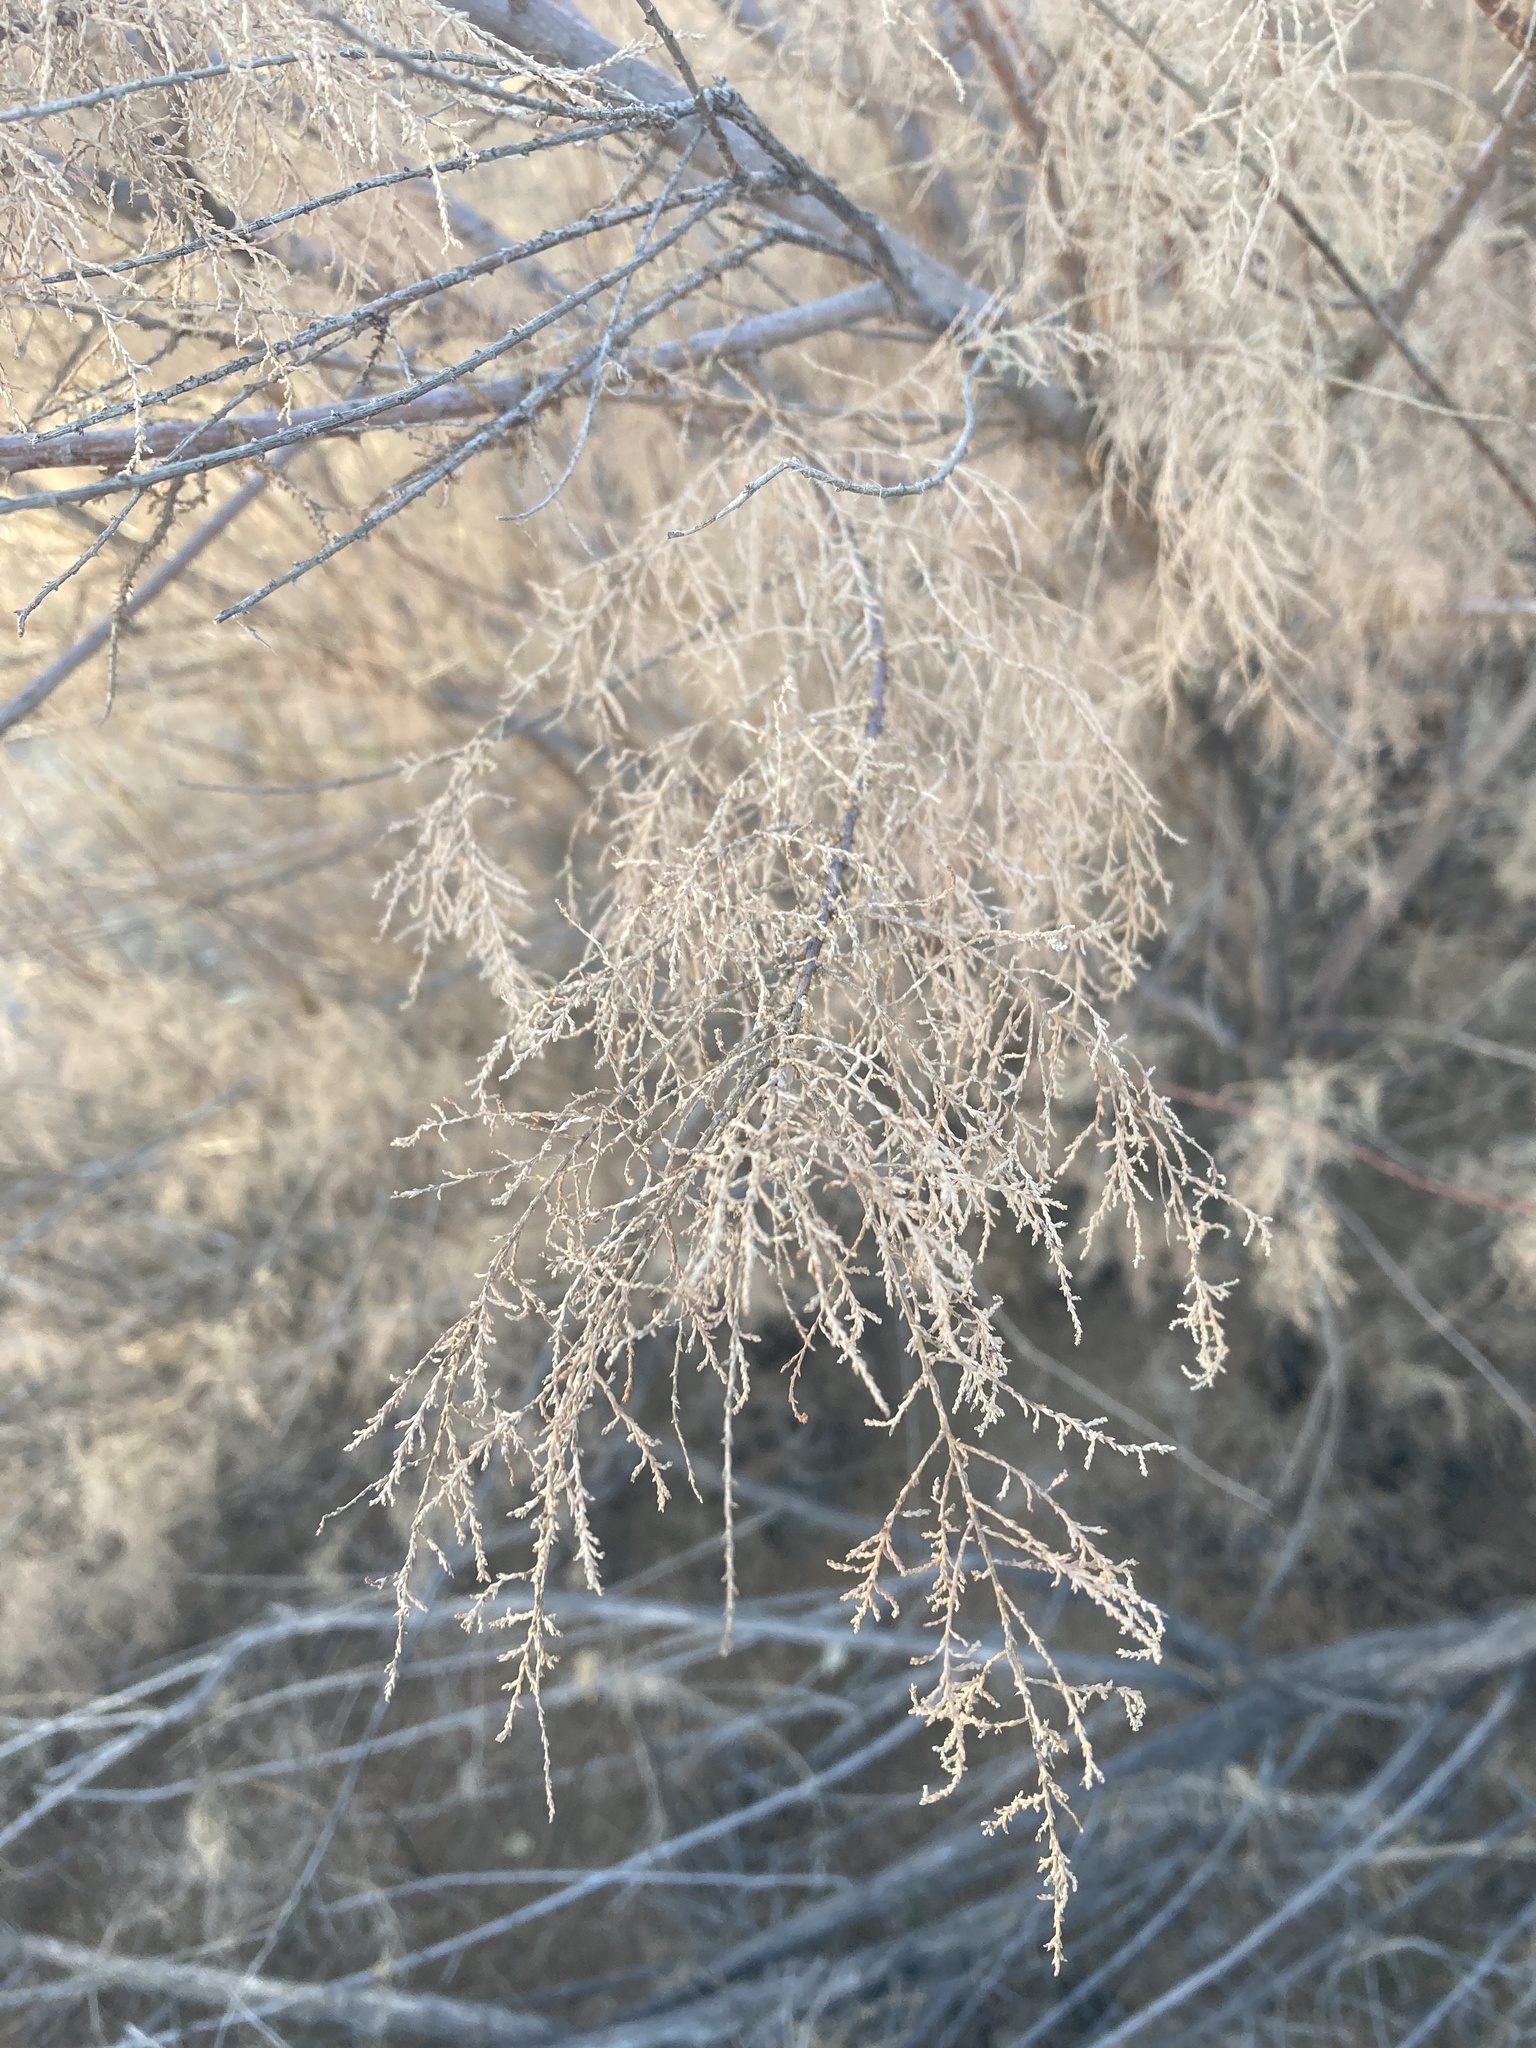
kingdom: Plantae
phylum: Tracheophyta
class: Magnoliopsida
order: Caryophyllales
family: Tamaricaceae
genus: Tamarix
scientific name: Tamarix ramosissima
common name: Pink tamarisk
